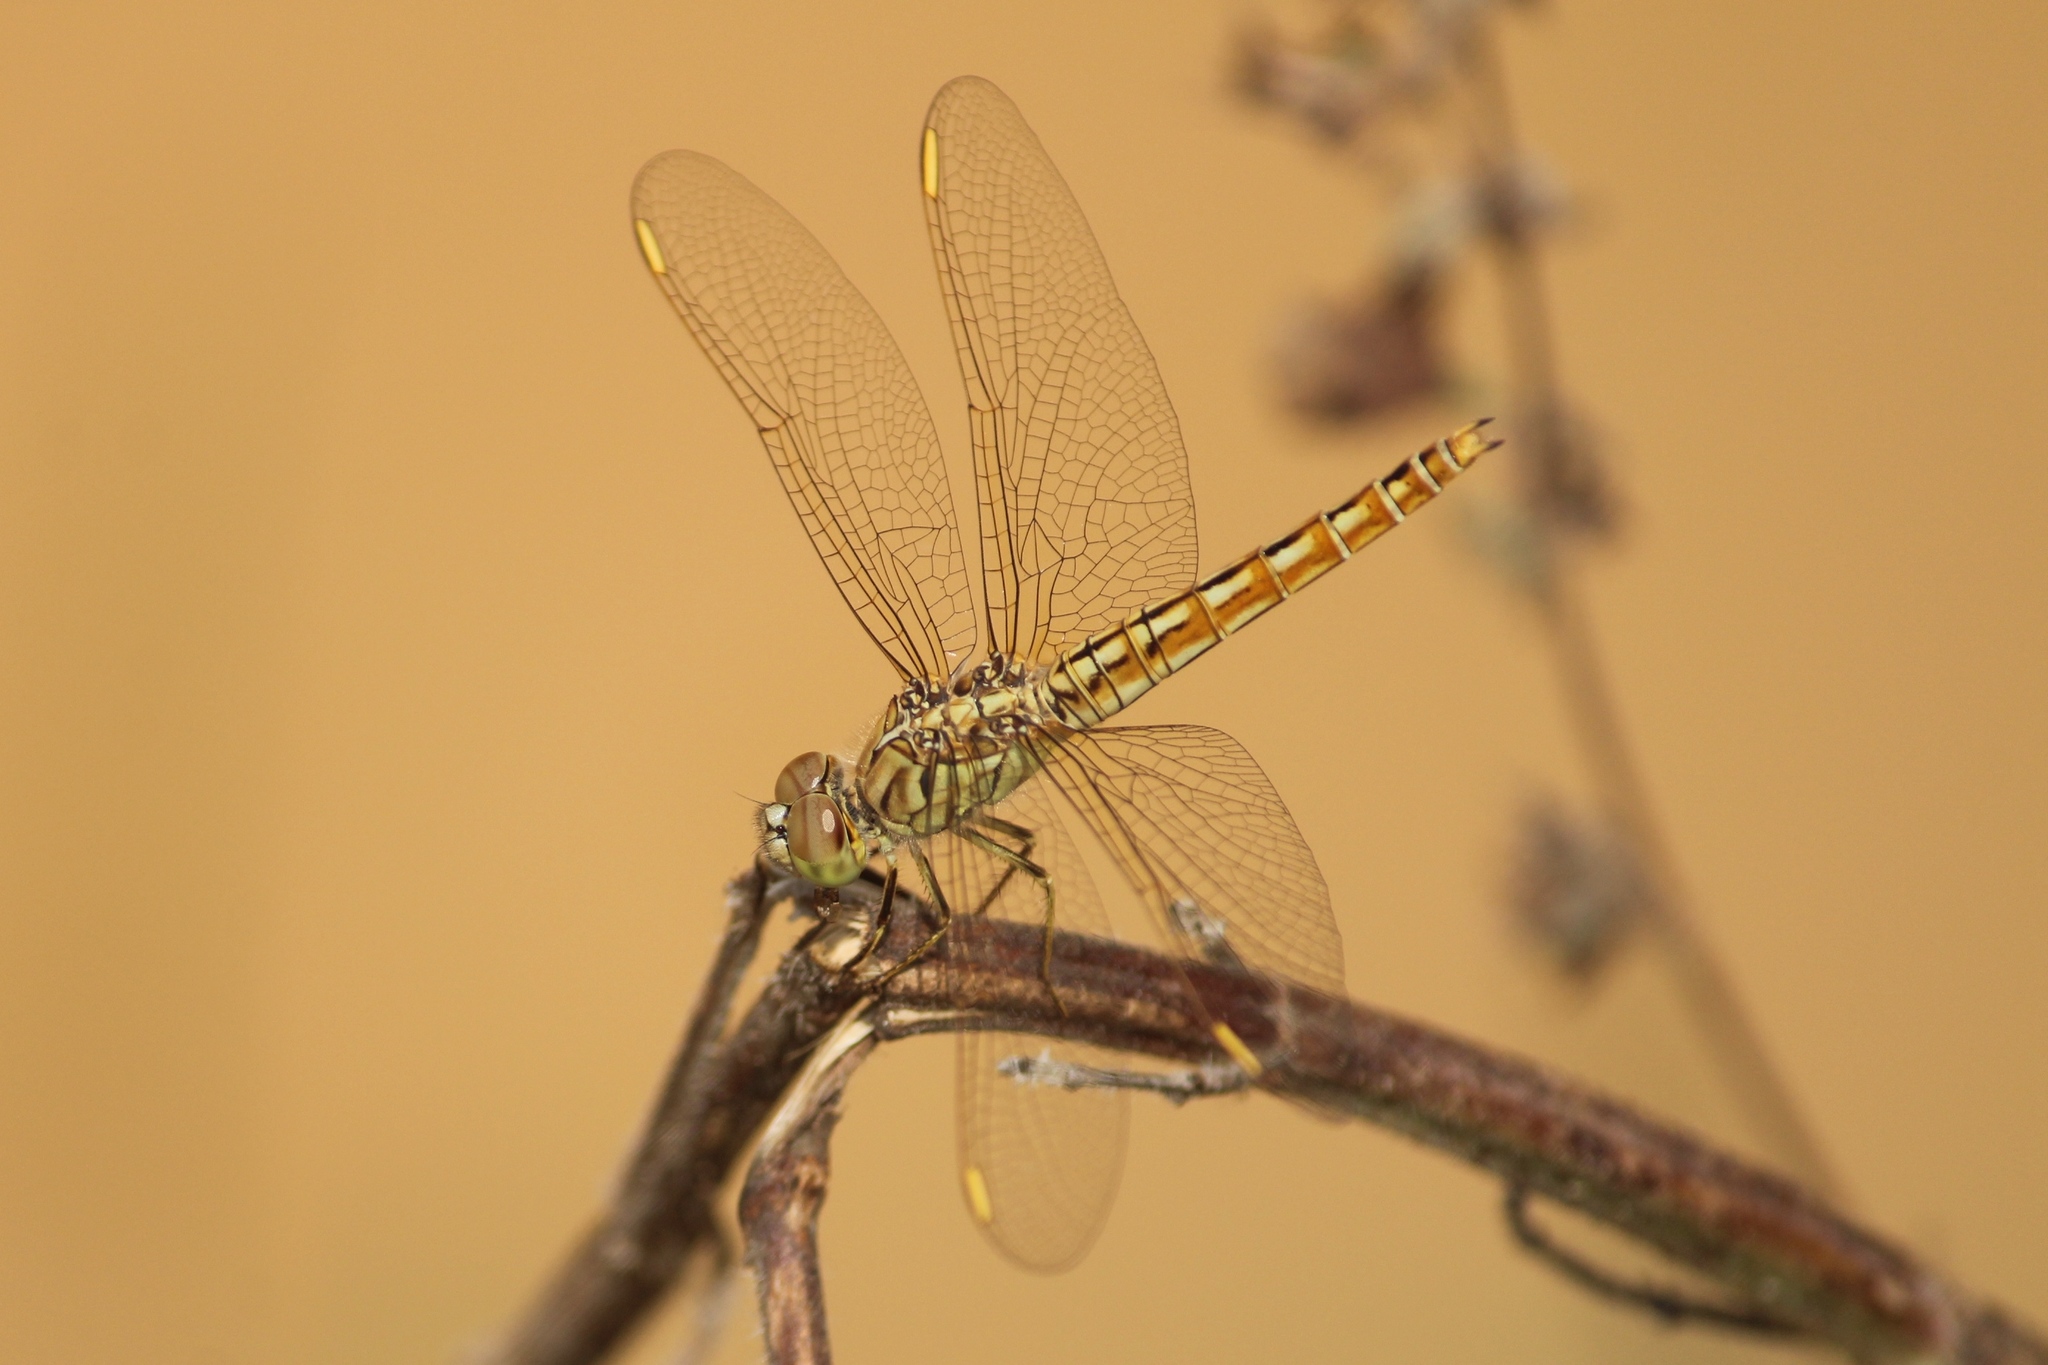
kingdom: Animalia
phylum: Arthropoda
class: Insecta
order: Odonata
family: Libellulidae
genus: Brachythemis
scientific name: Brachythemis contaminata
